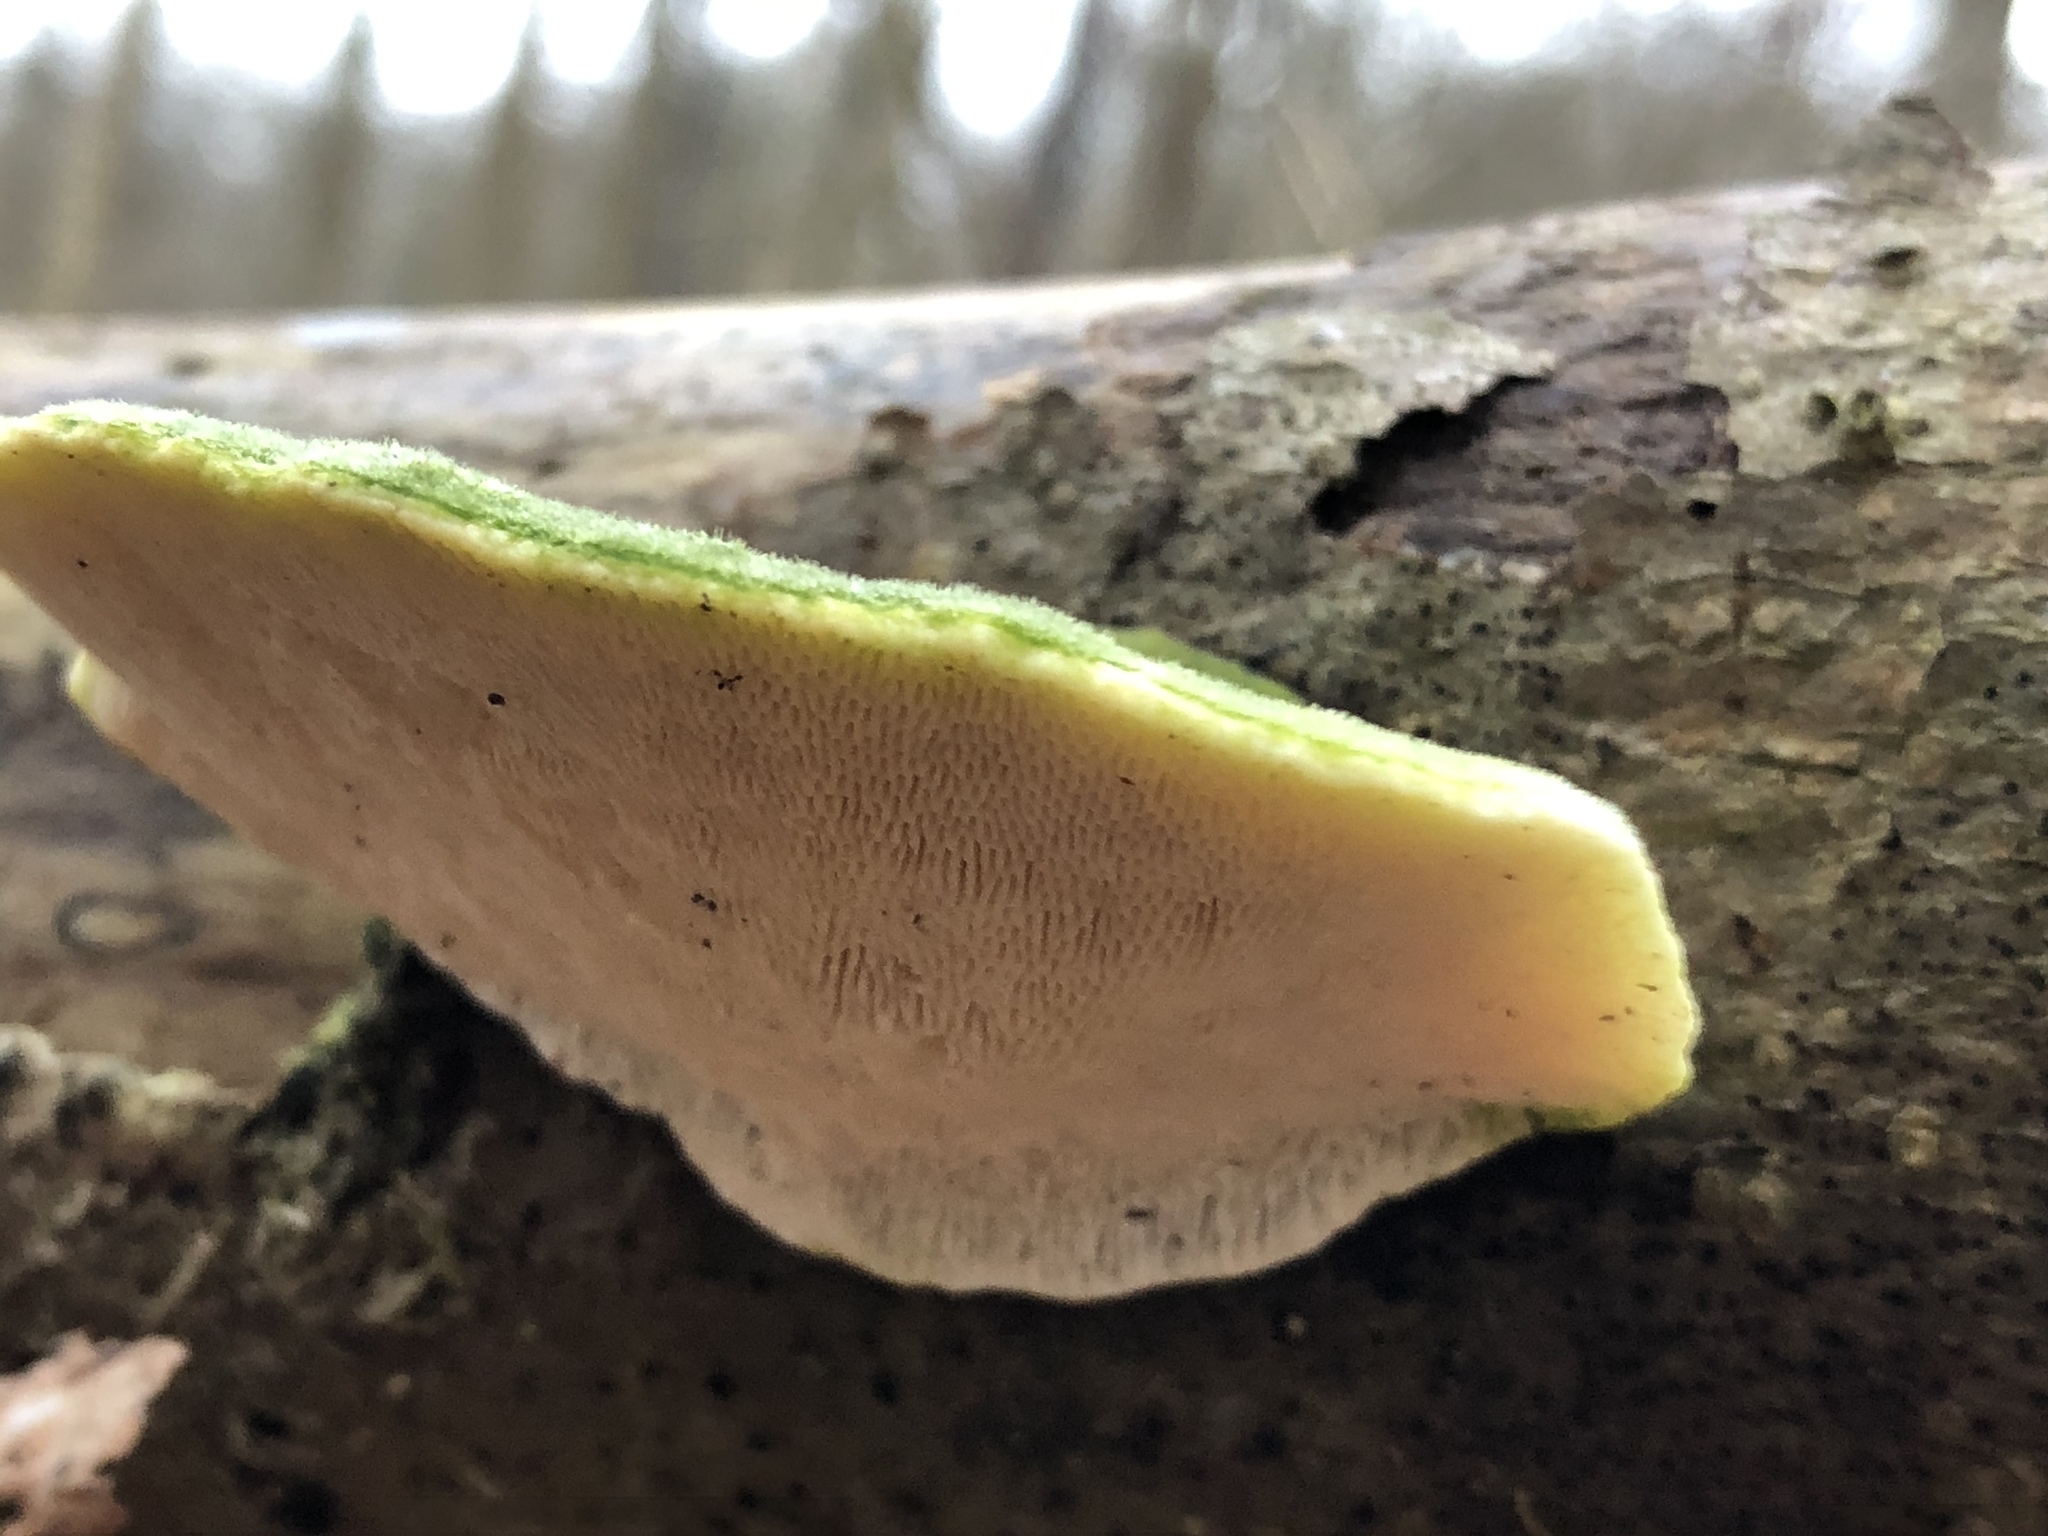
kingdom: Fungi
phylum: Basidiomycota
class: Agaricomycetes
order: Polyporales
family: Polyporaceae
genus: Trametes
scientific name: Trametes gibbosa
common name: Lumpy bracket
